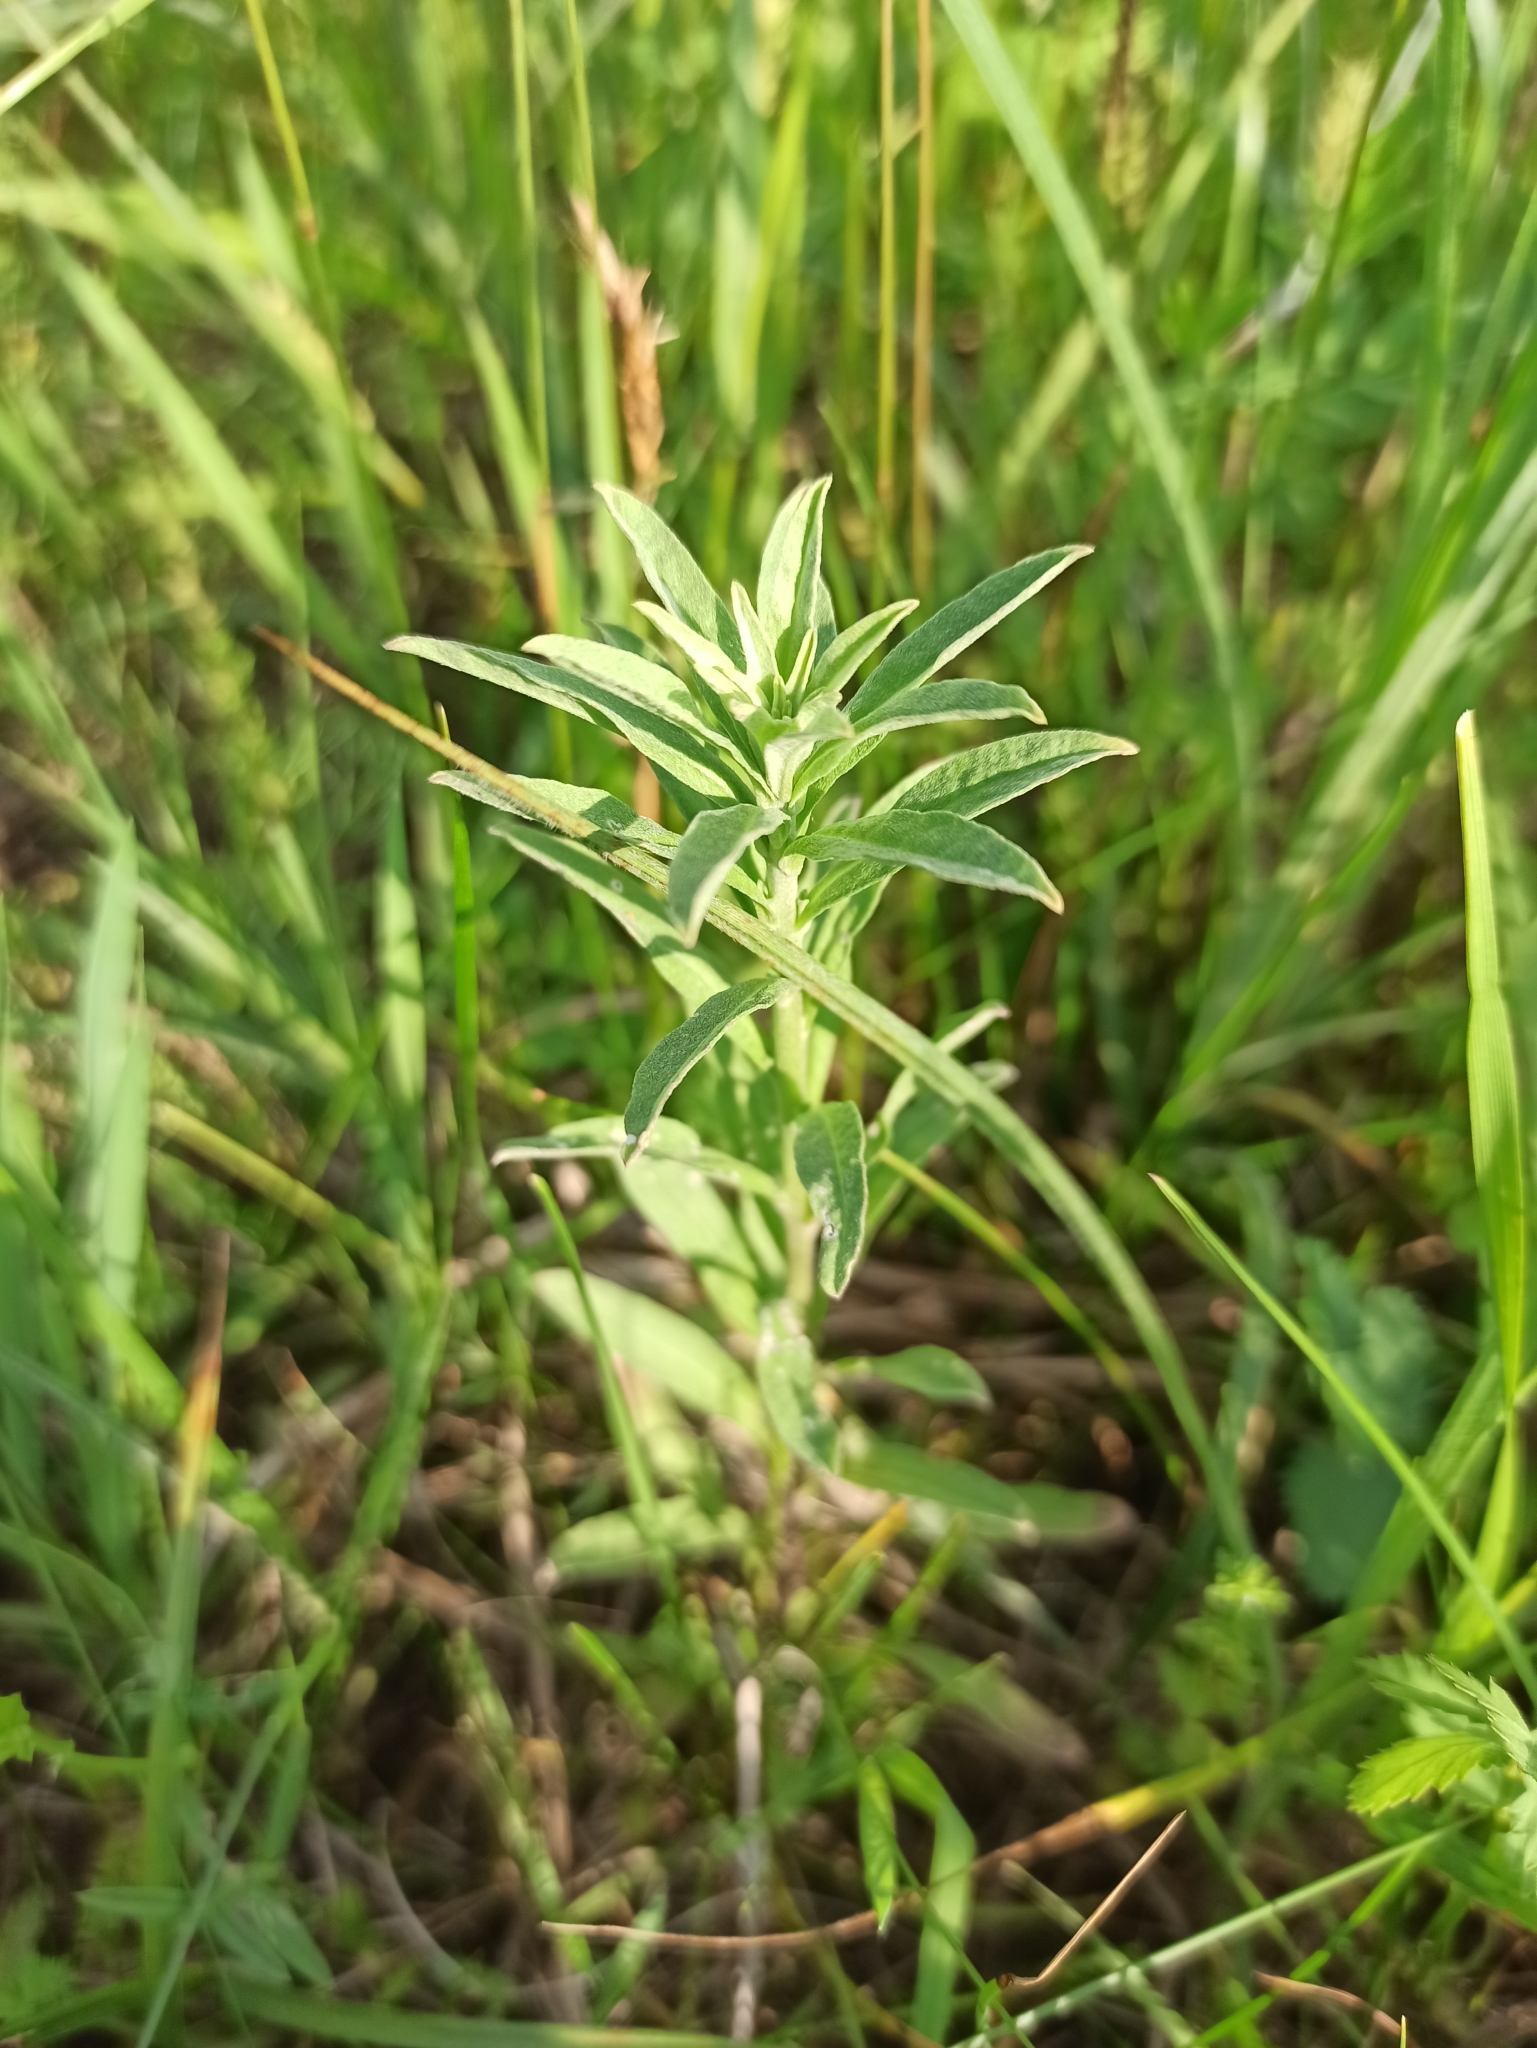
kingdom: Plantae
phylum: Tracheophyta
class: Magnoliopsida
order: Brassicales
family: Brassicaceae
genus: Berteroa
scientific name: Berteroa incana
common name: Hoary alison
